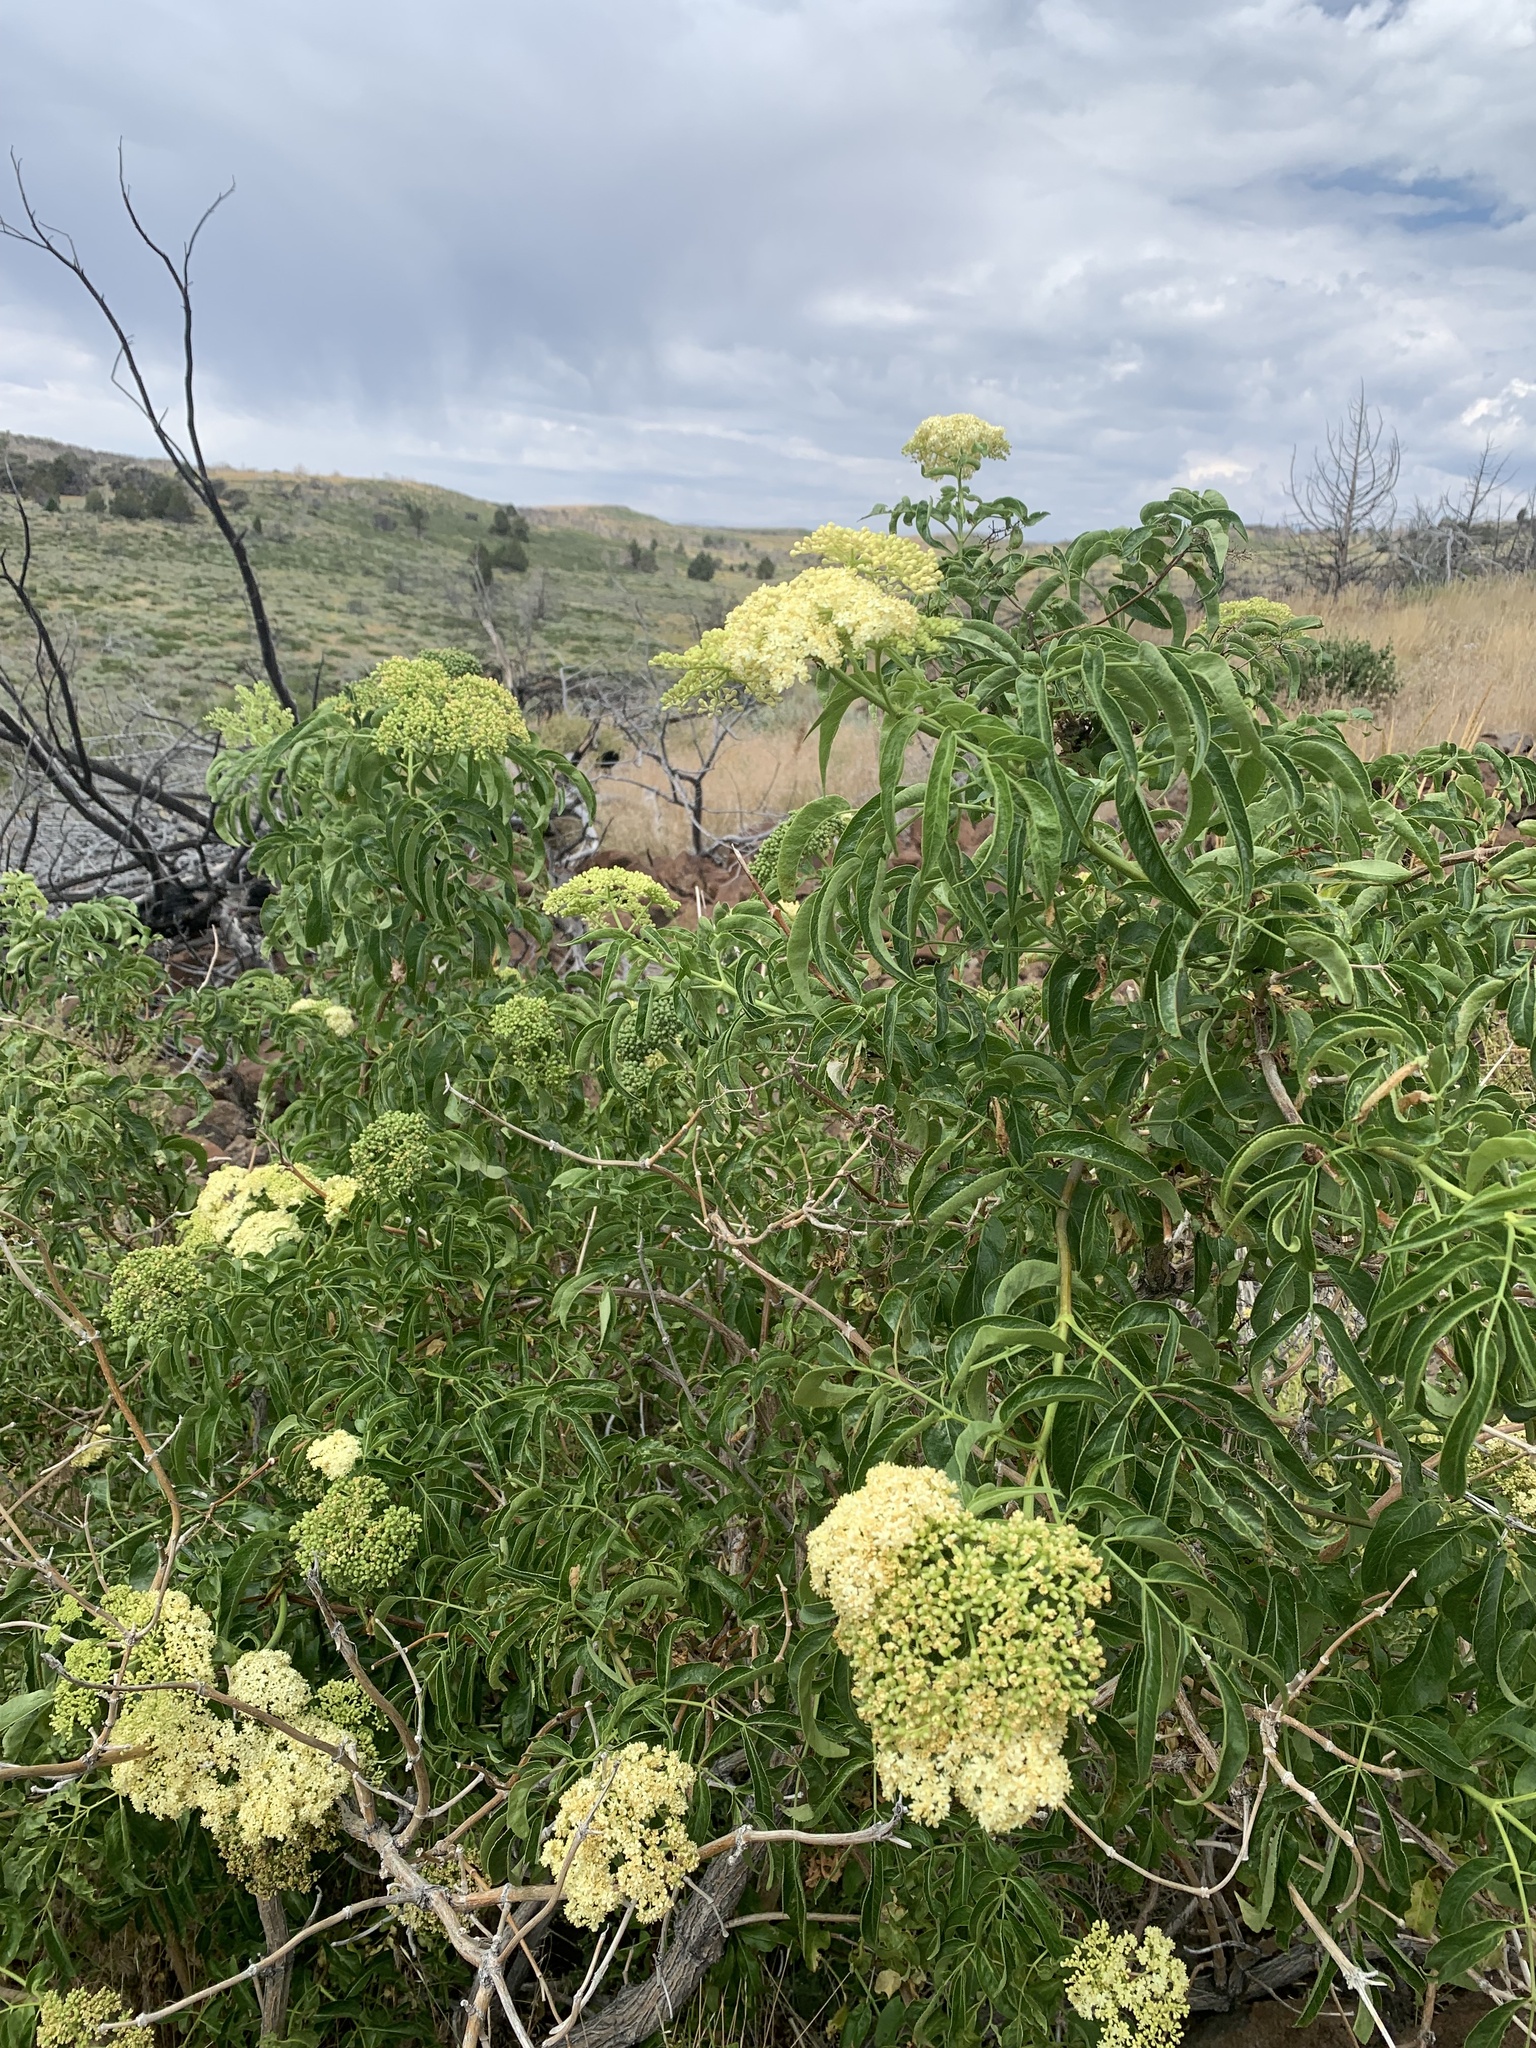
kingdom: Plantae
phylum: Tracheophyta
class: Magnoliopsida
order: Dipsacales
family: Viburnaceae
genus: Sambucus
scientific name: Sambucus cerulea
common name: Blue elder
